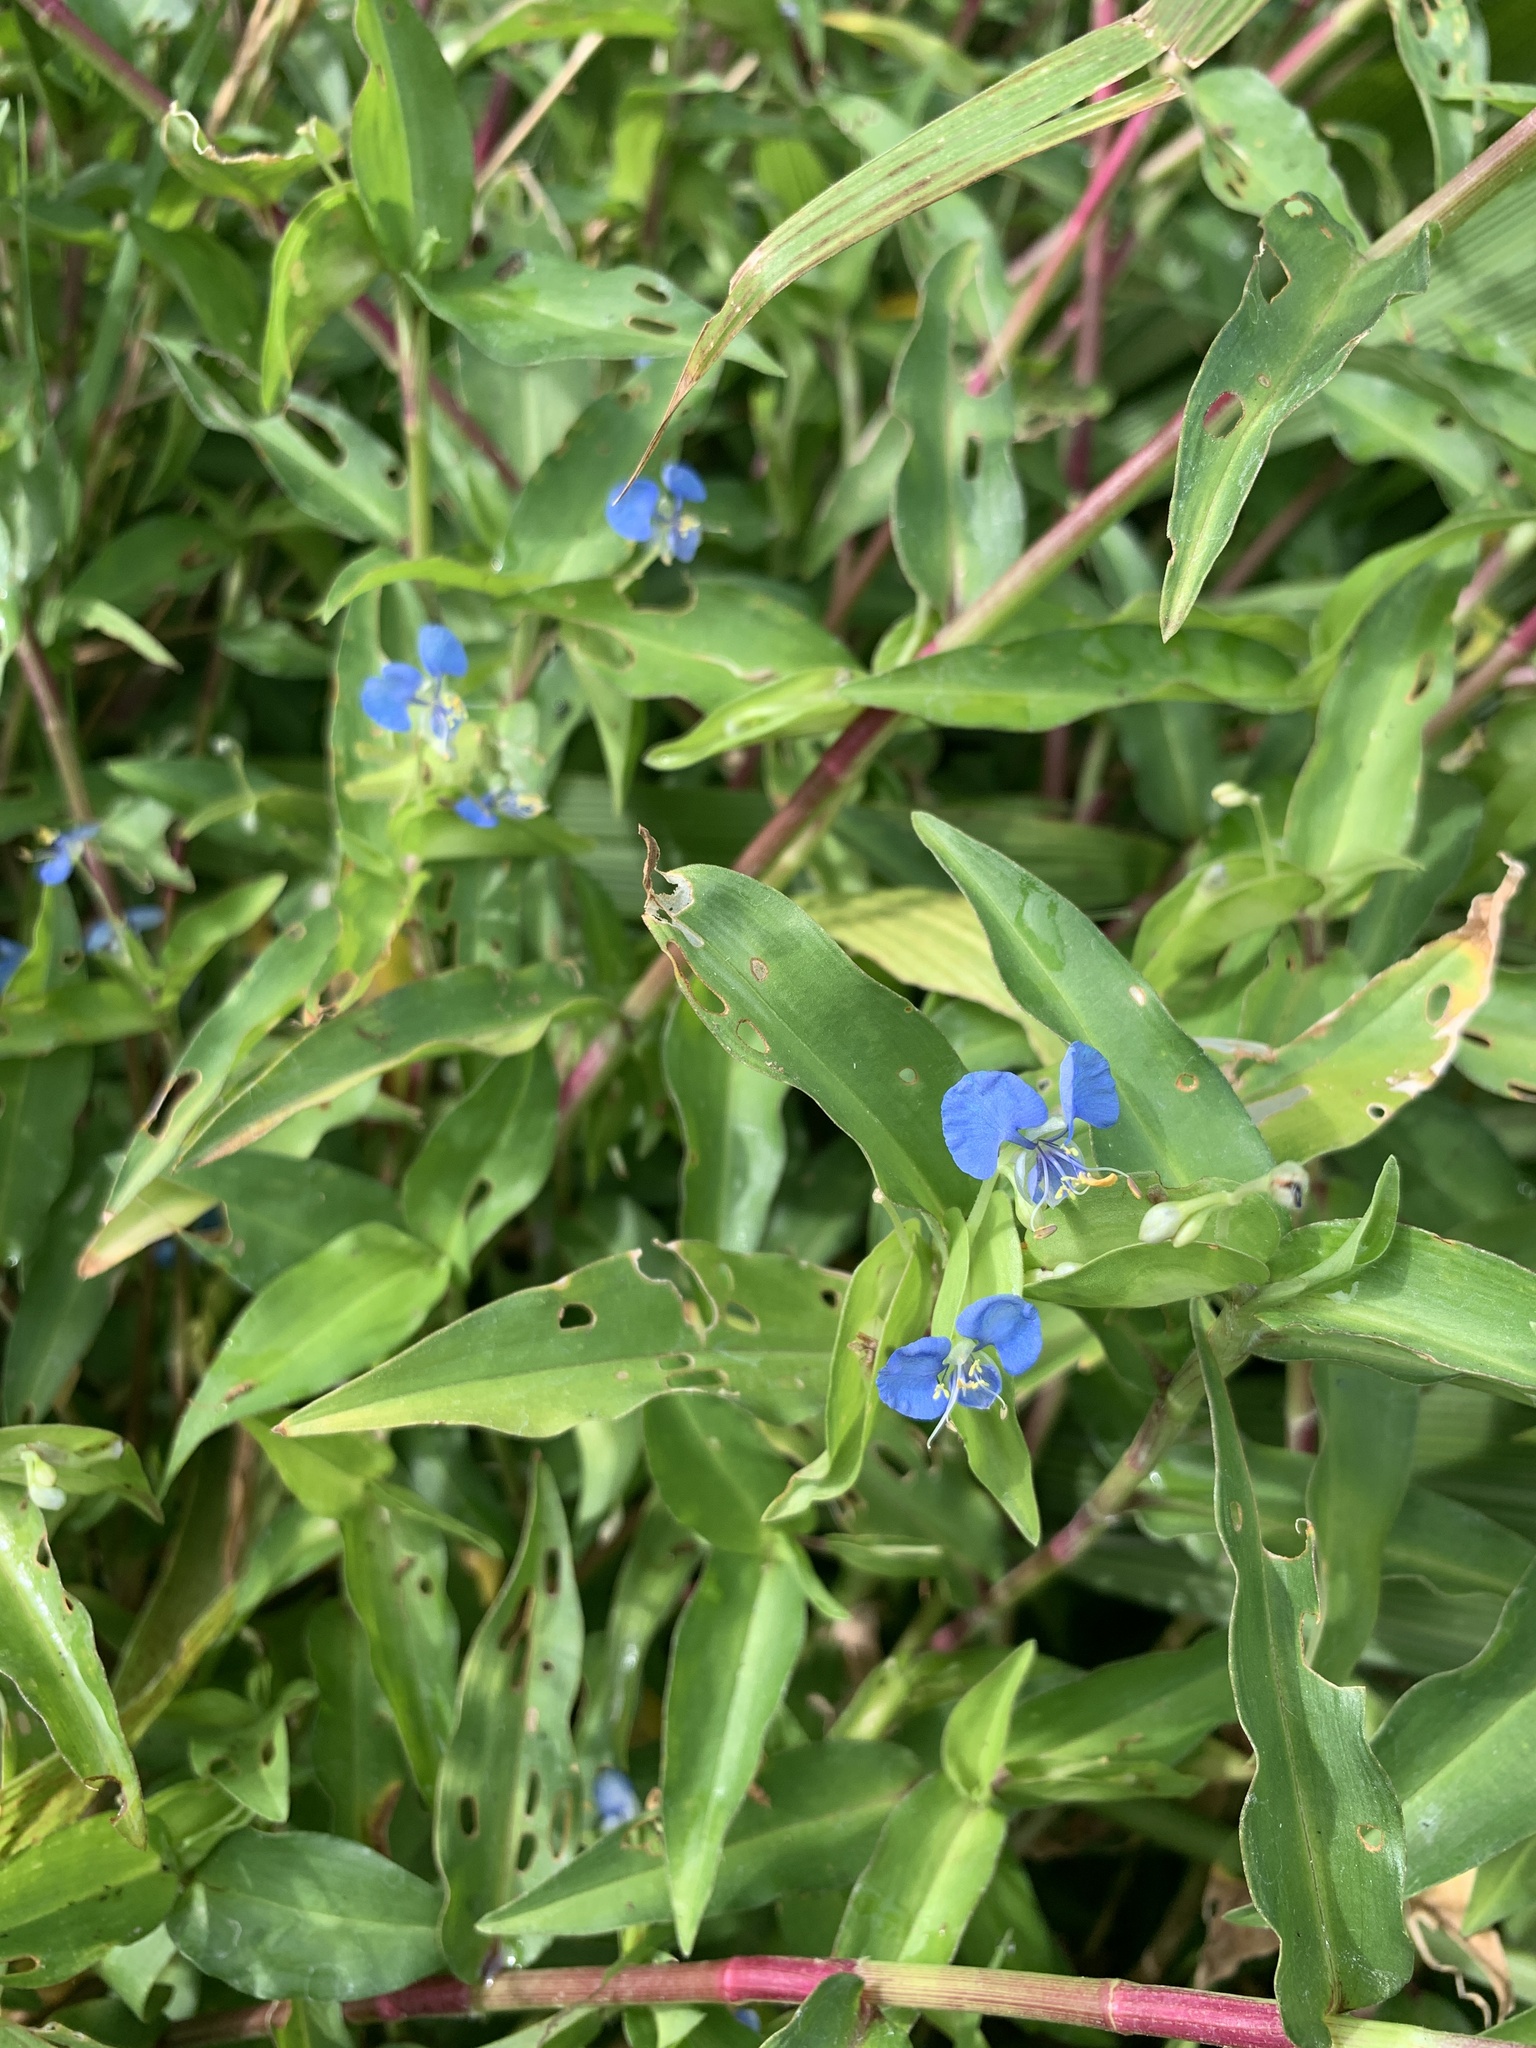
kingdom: Plantae
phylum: Tracheophyta
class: Liliopsida
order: Commelinales
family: Commelinaceae
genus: Commelina
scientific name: Commelina diffusa
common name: Climbing dayflower
